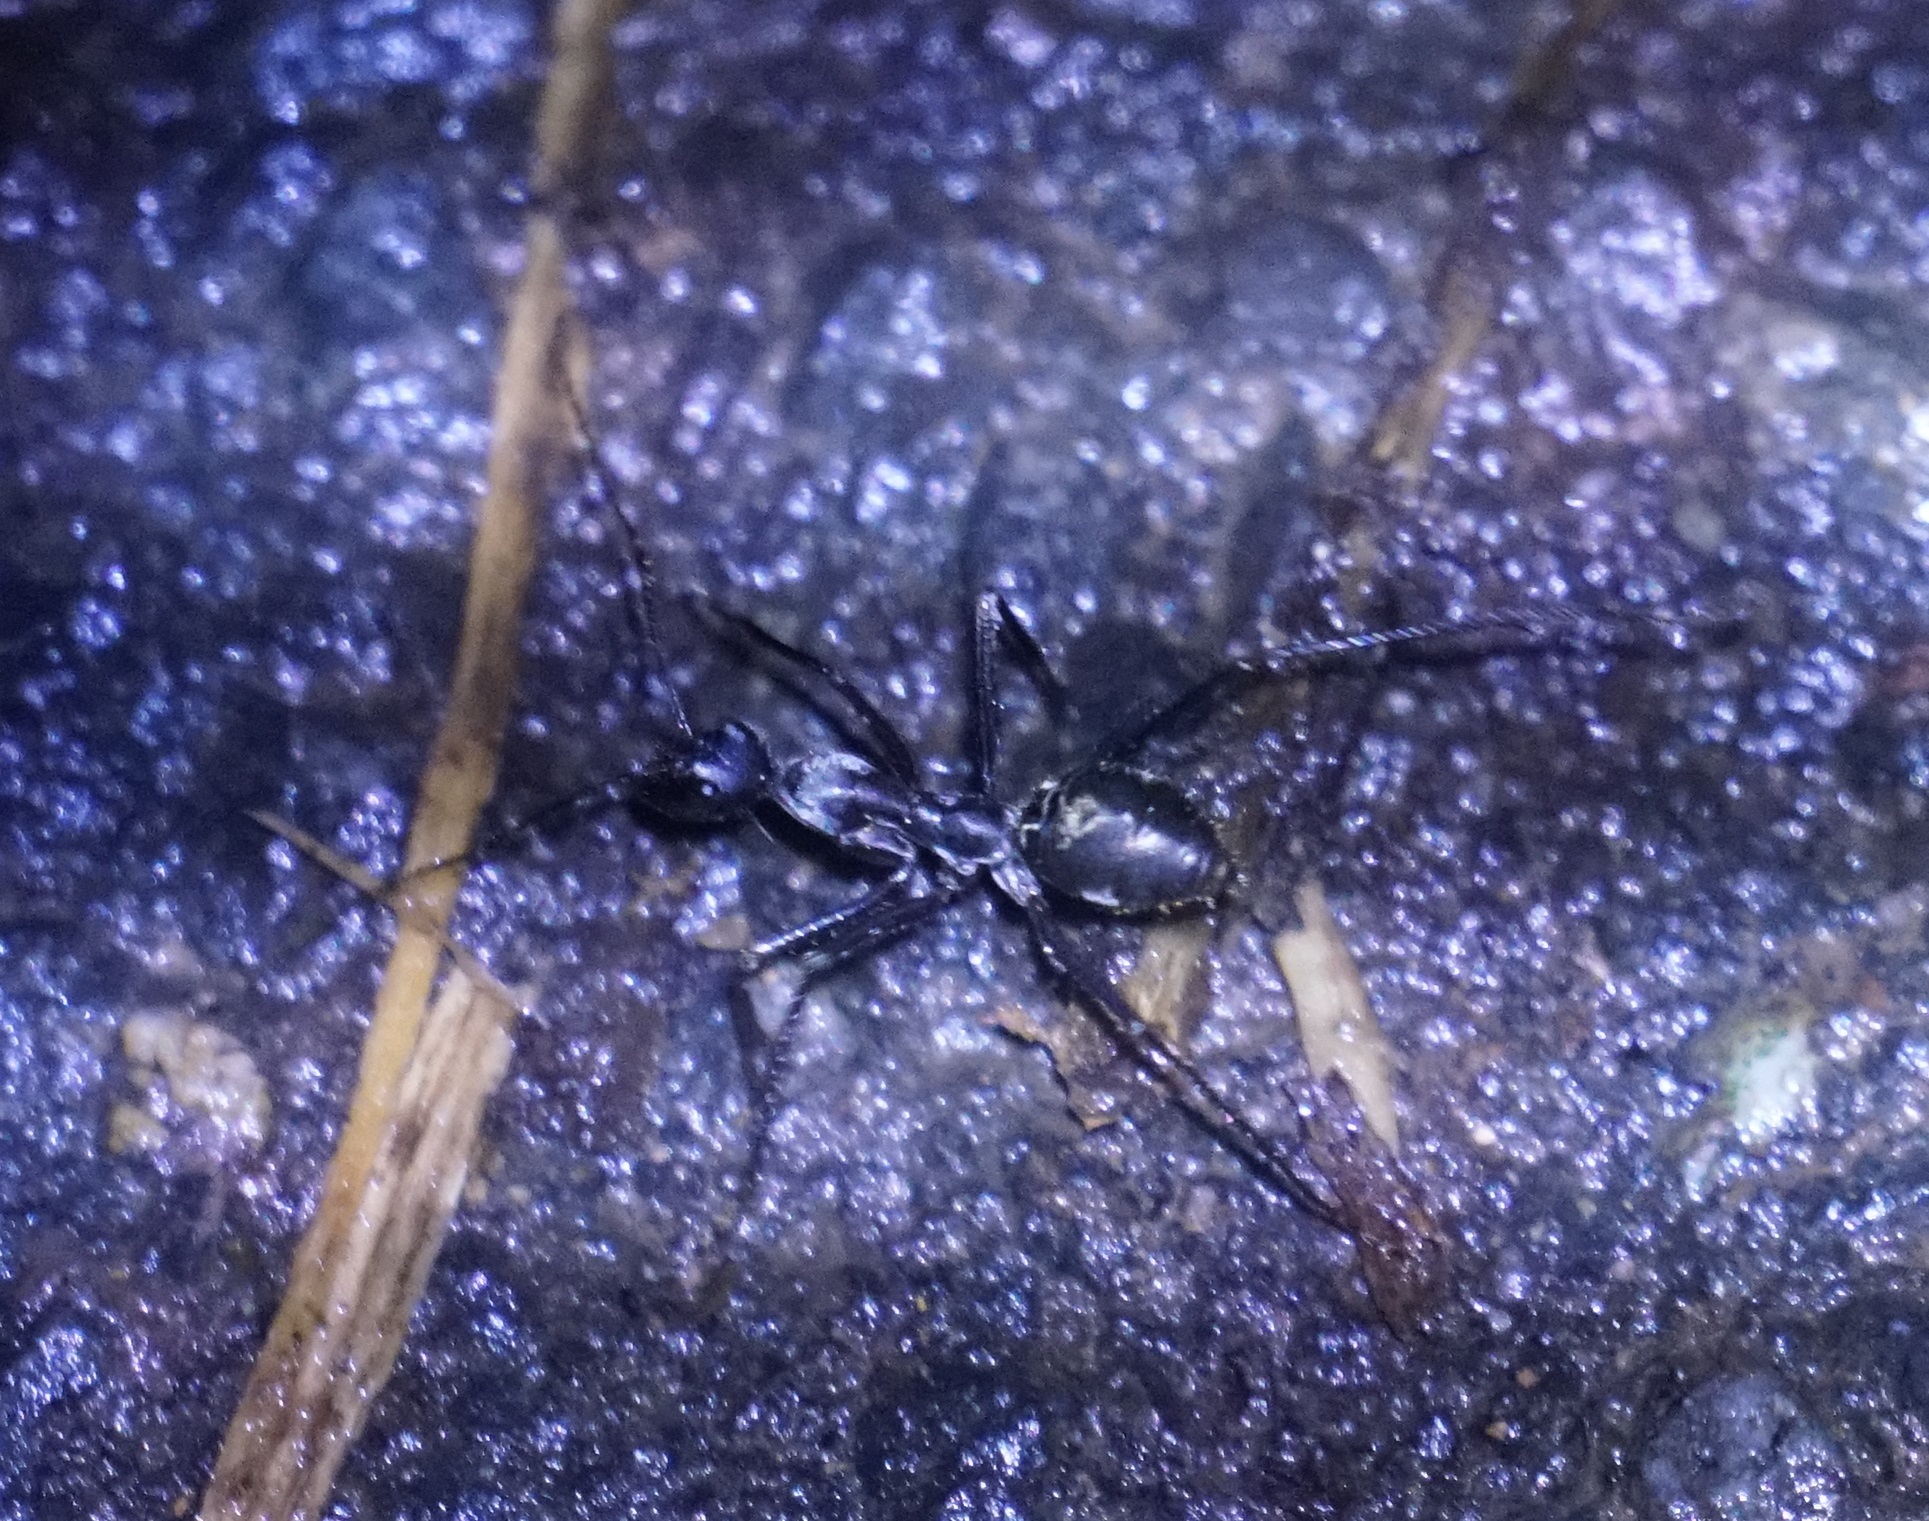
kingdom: Animalia
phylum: Arthropoda
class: Insecta
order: Hymenoptera
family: Formicidae
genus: Notostigma
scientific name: Notostigma carazzii
